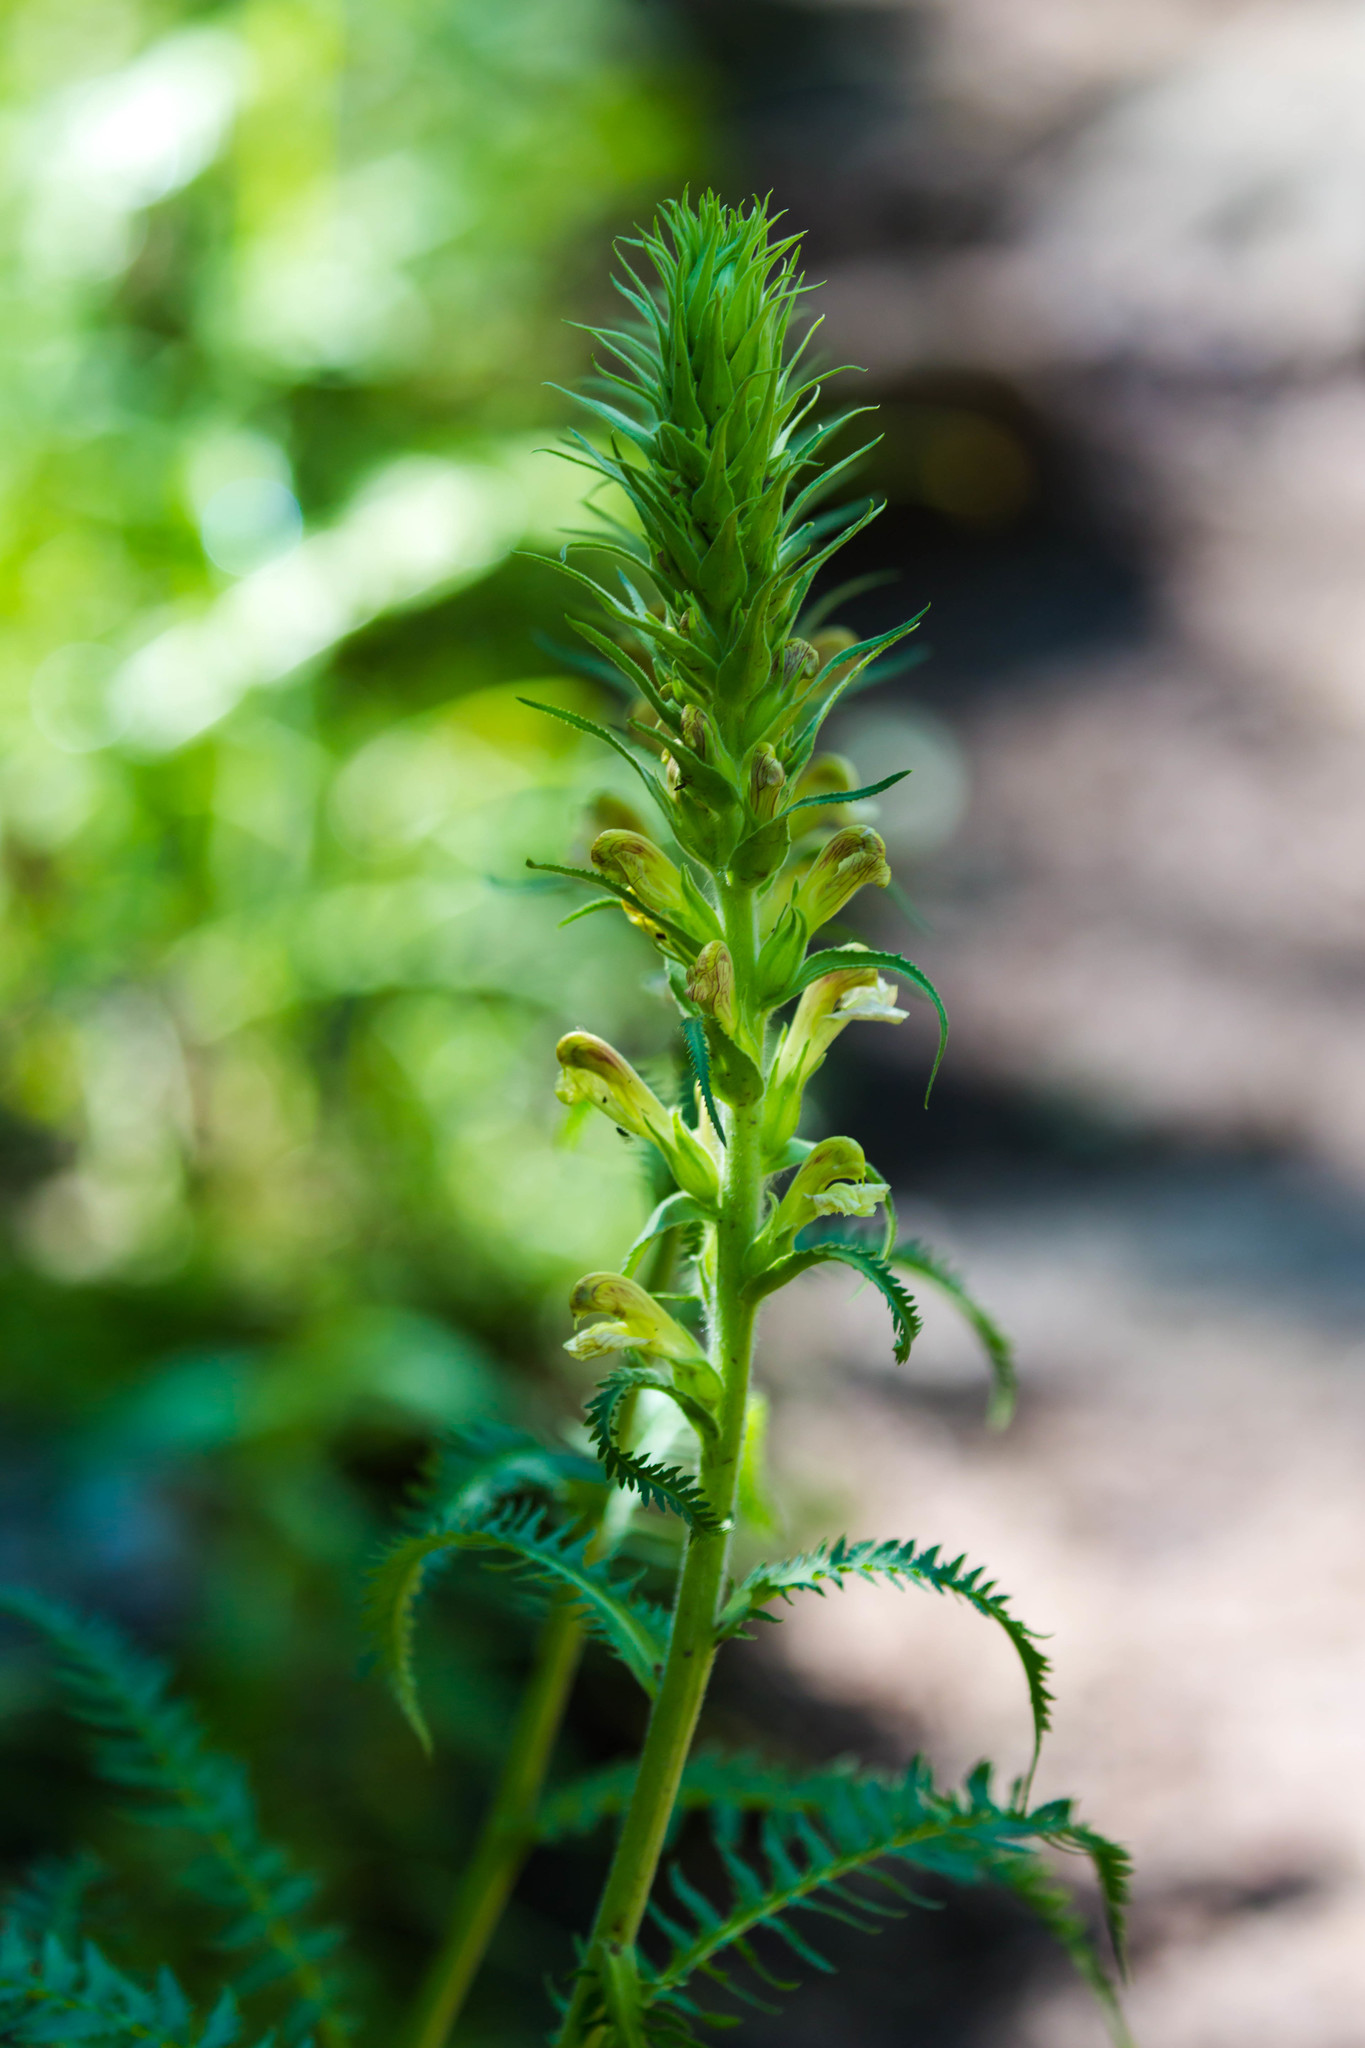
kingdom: Plantae
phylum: Tracheophyta
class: Magnoliopsida
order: Lamiales
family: Orobanchaceae
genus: Pedicularis
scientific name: Pedicularis procera
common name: Gray's lousewort
